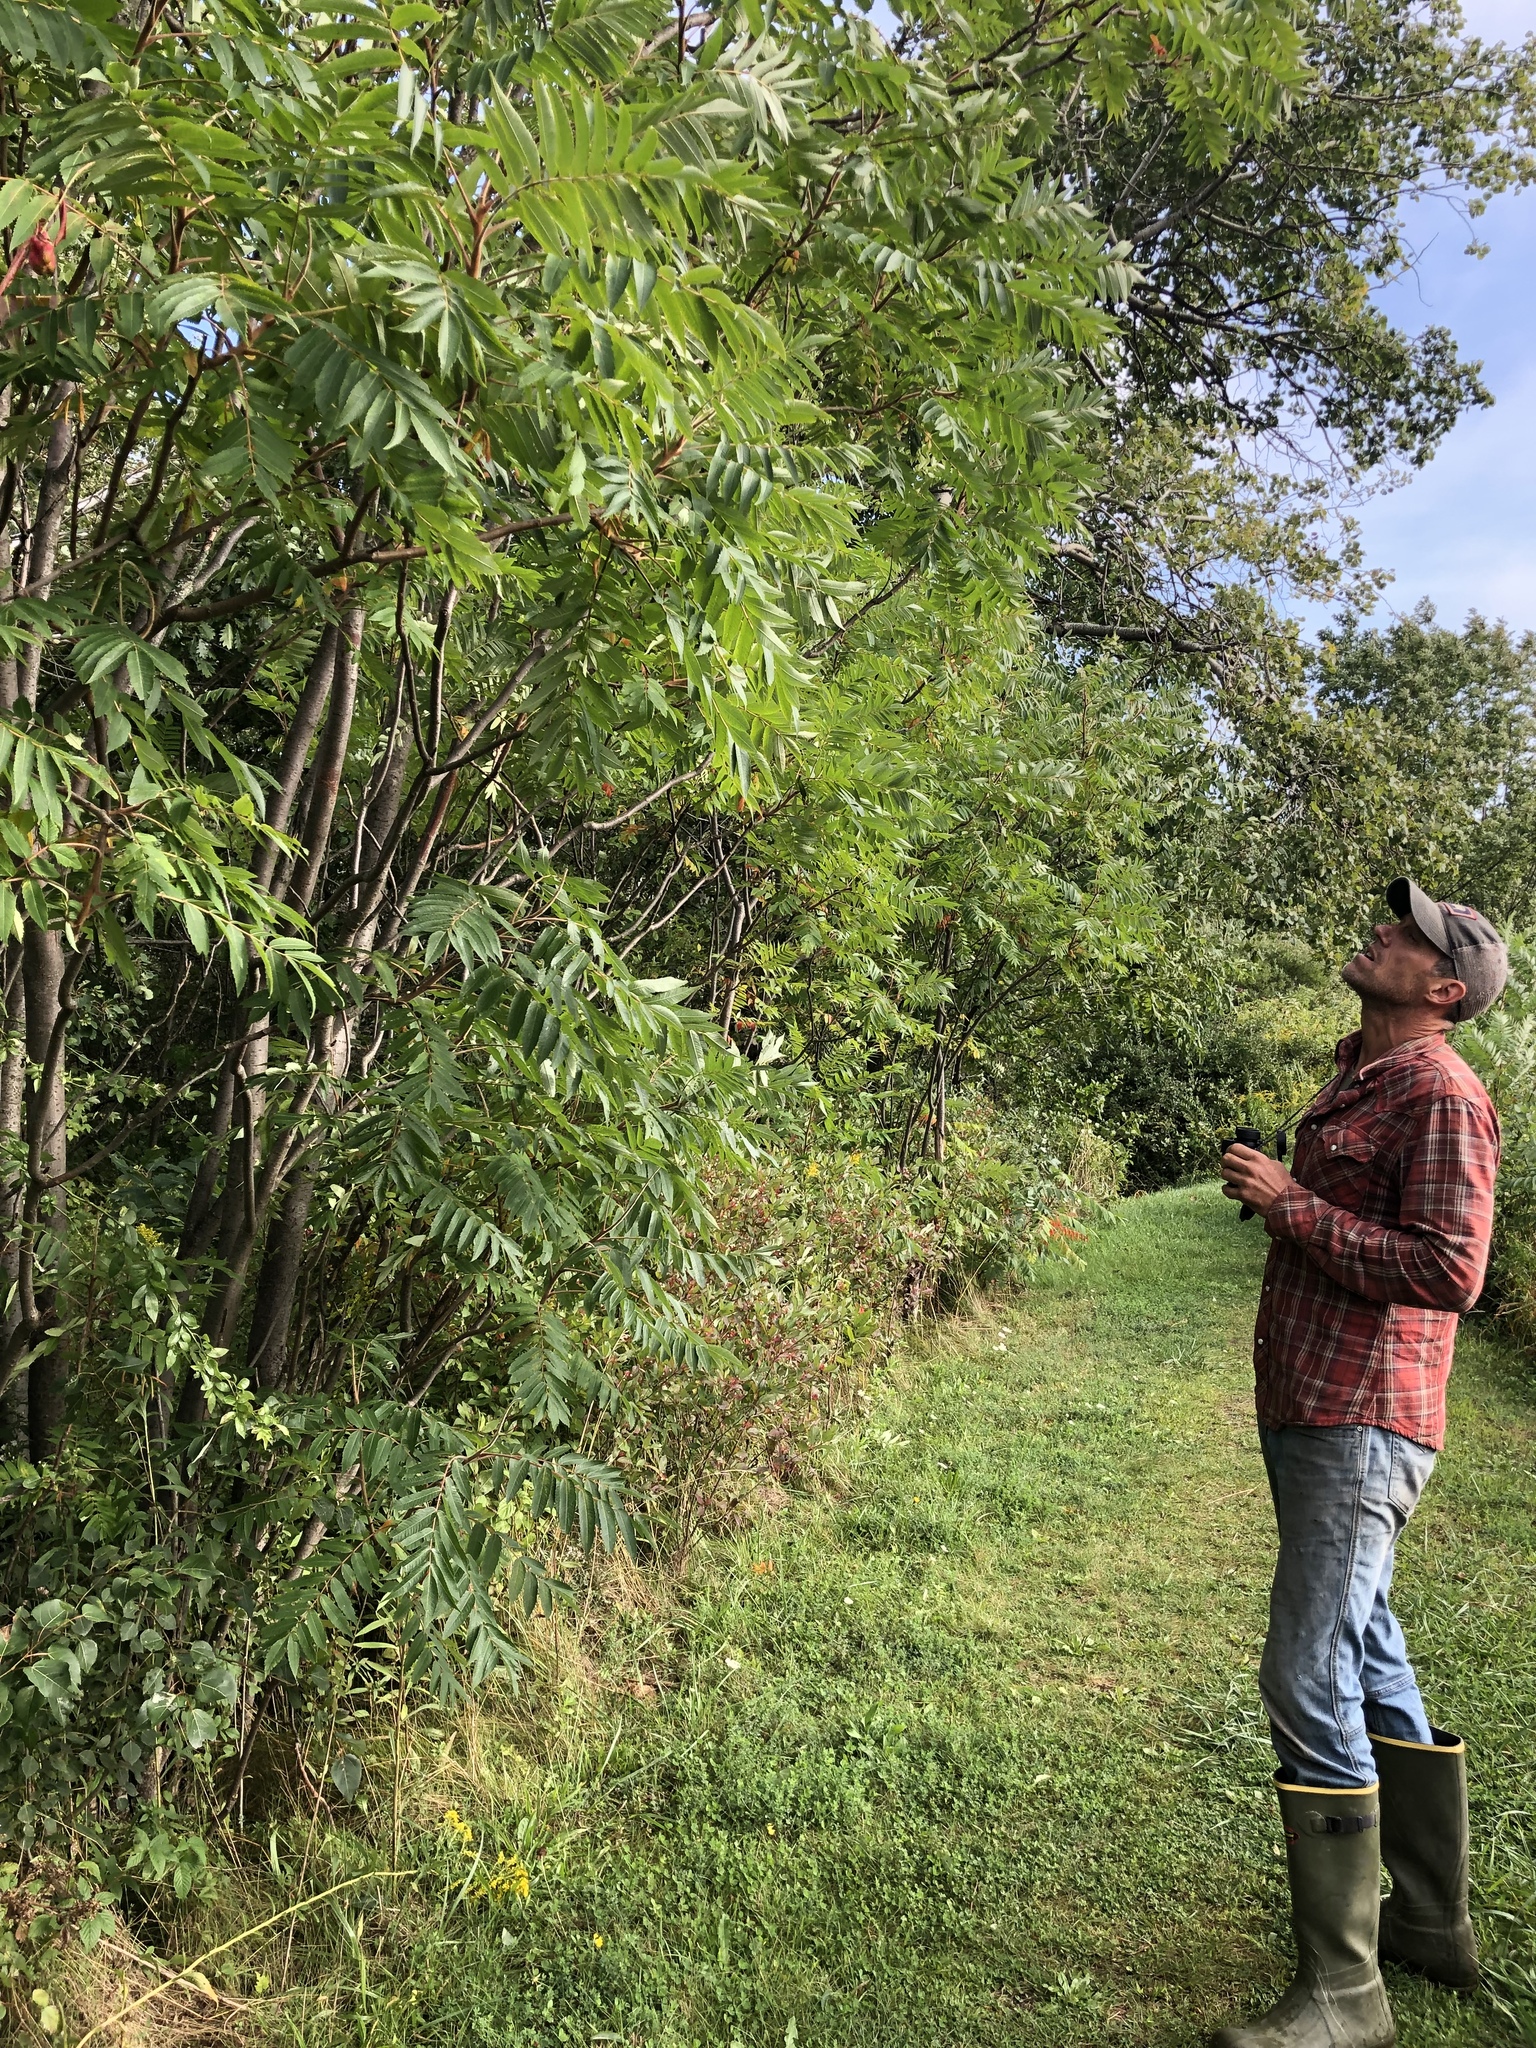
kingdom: Plantae
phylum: Tracheophyta
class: Magnoliopsida
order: Sapindales
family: Anacardiaceae
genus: Rhus
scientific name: Rhus typhina
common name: Staghorn sumac
